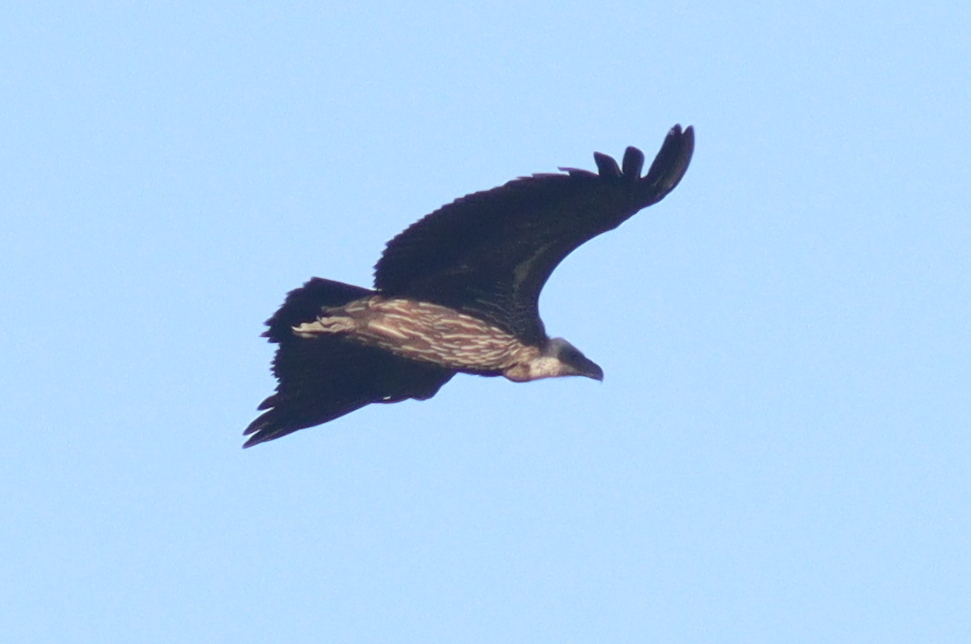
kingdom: Animalia
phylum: Chordata
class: Aves
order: Accipitriformes
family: Accipitridae
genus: Gyps
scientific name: Gyps africanus
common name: White-backed vulture
